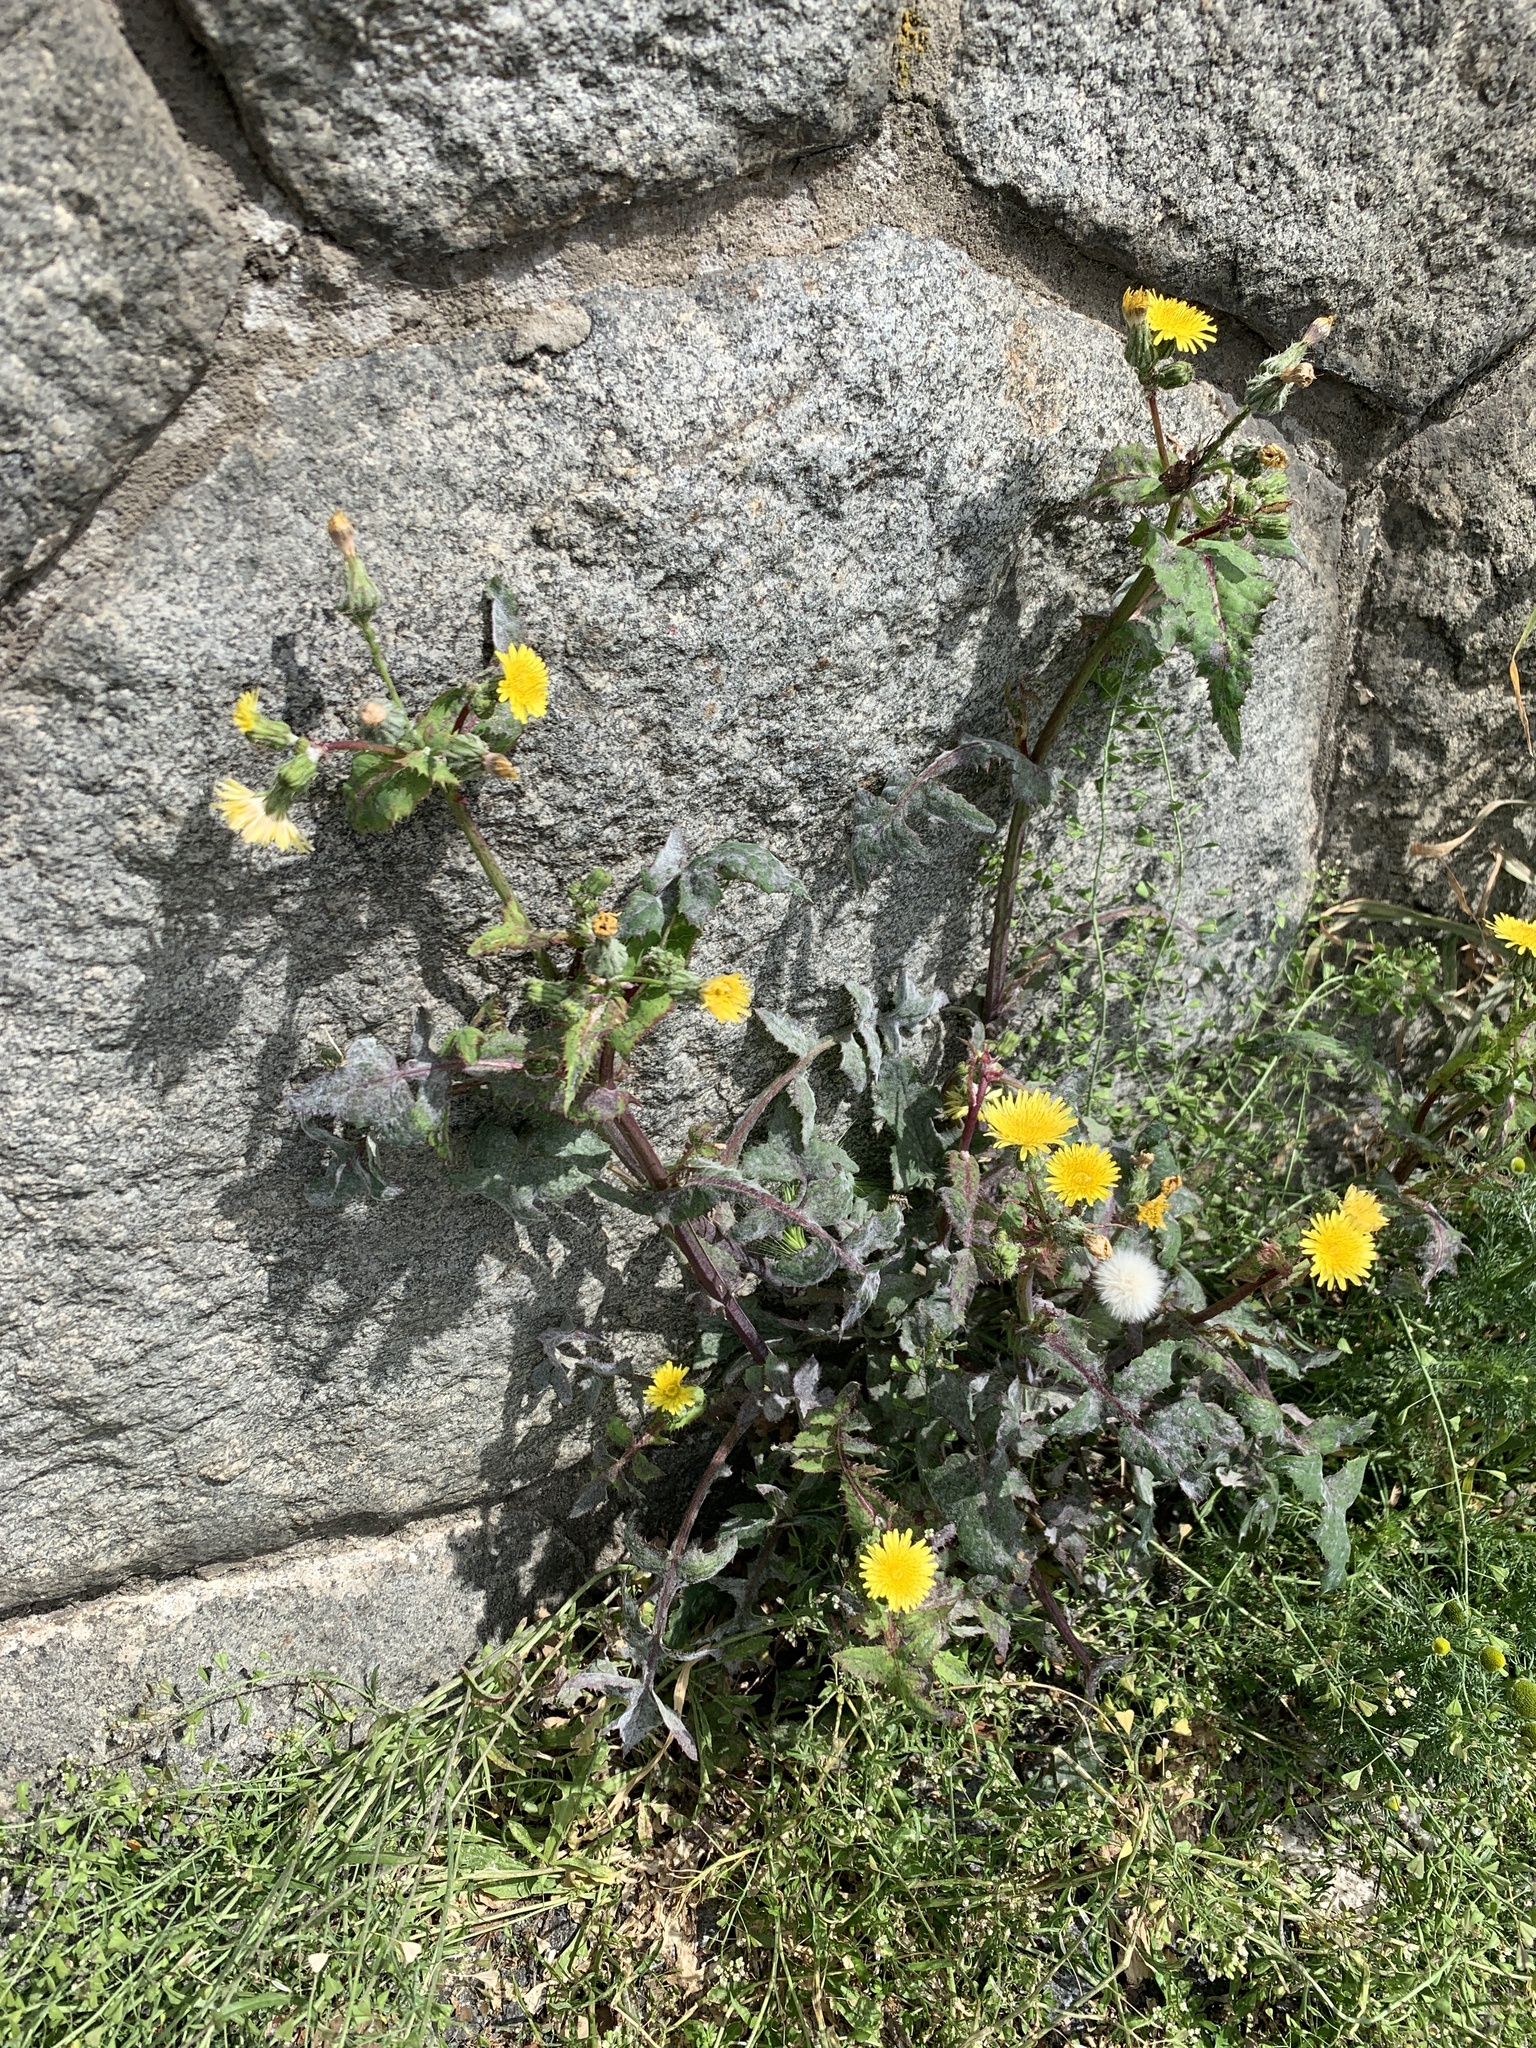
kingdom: Plantae
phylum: Tracheophyta
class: Magnoliopsida
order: Asterales
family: Asteraceae
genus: Sonchus
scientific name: Sonchus oleraceus
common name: Common sowthistle
